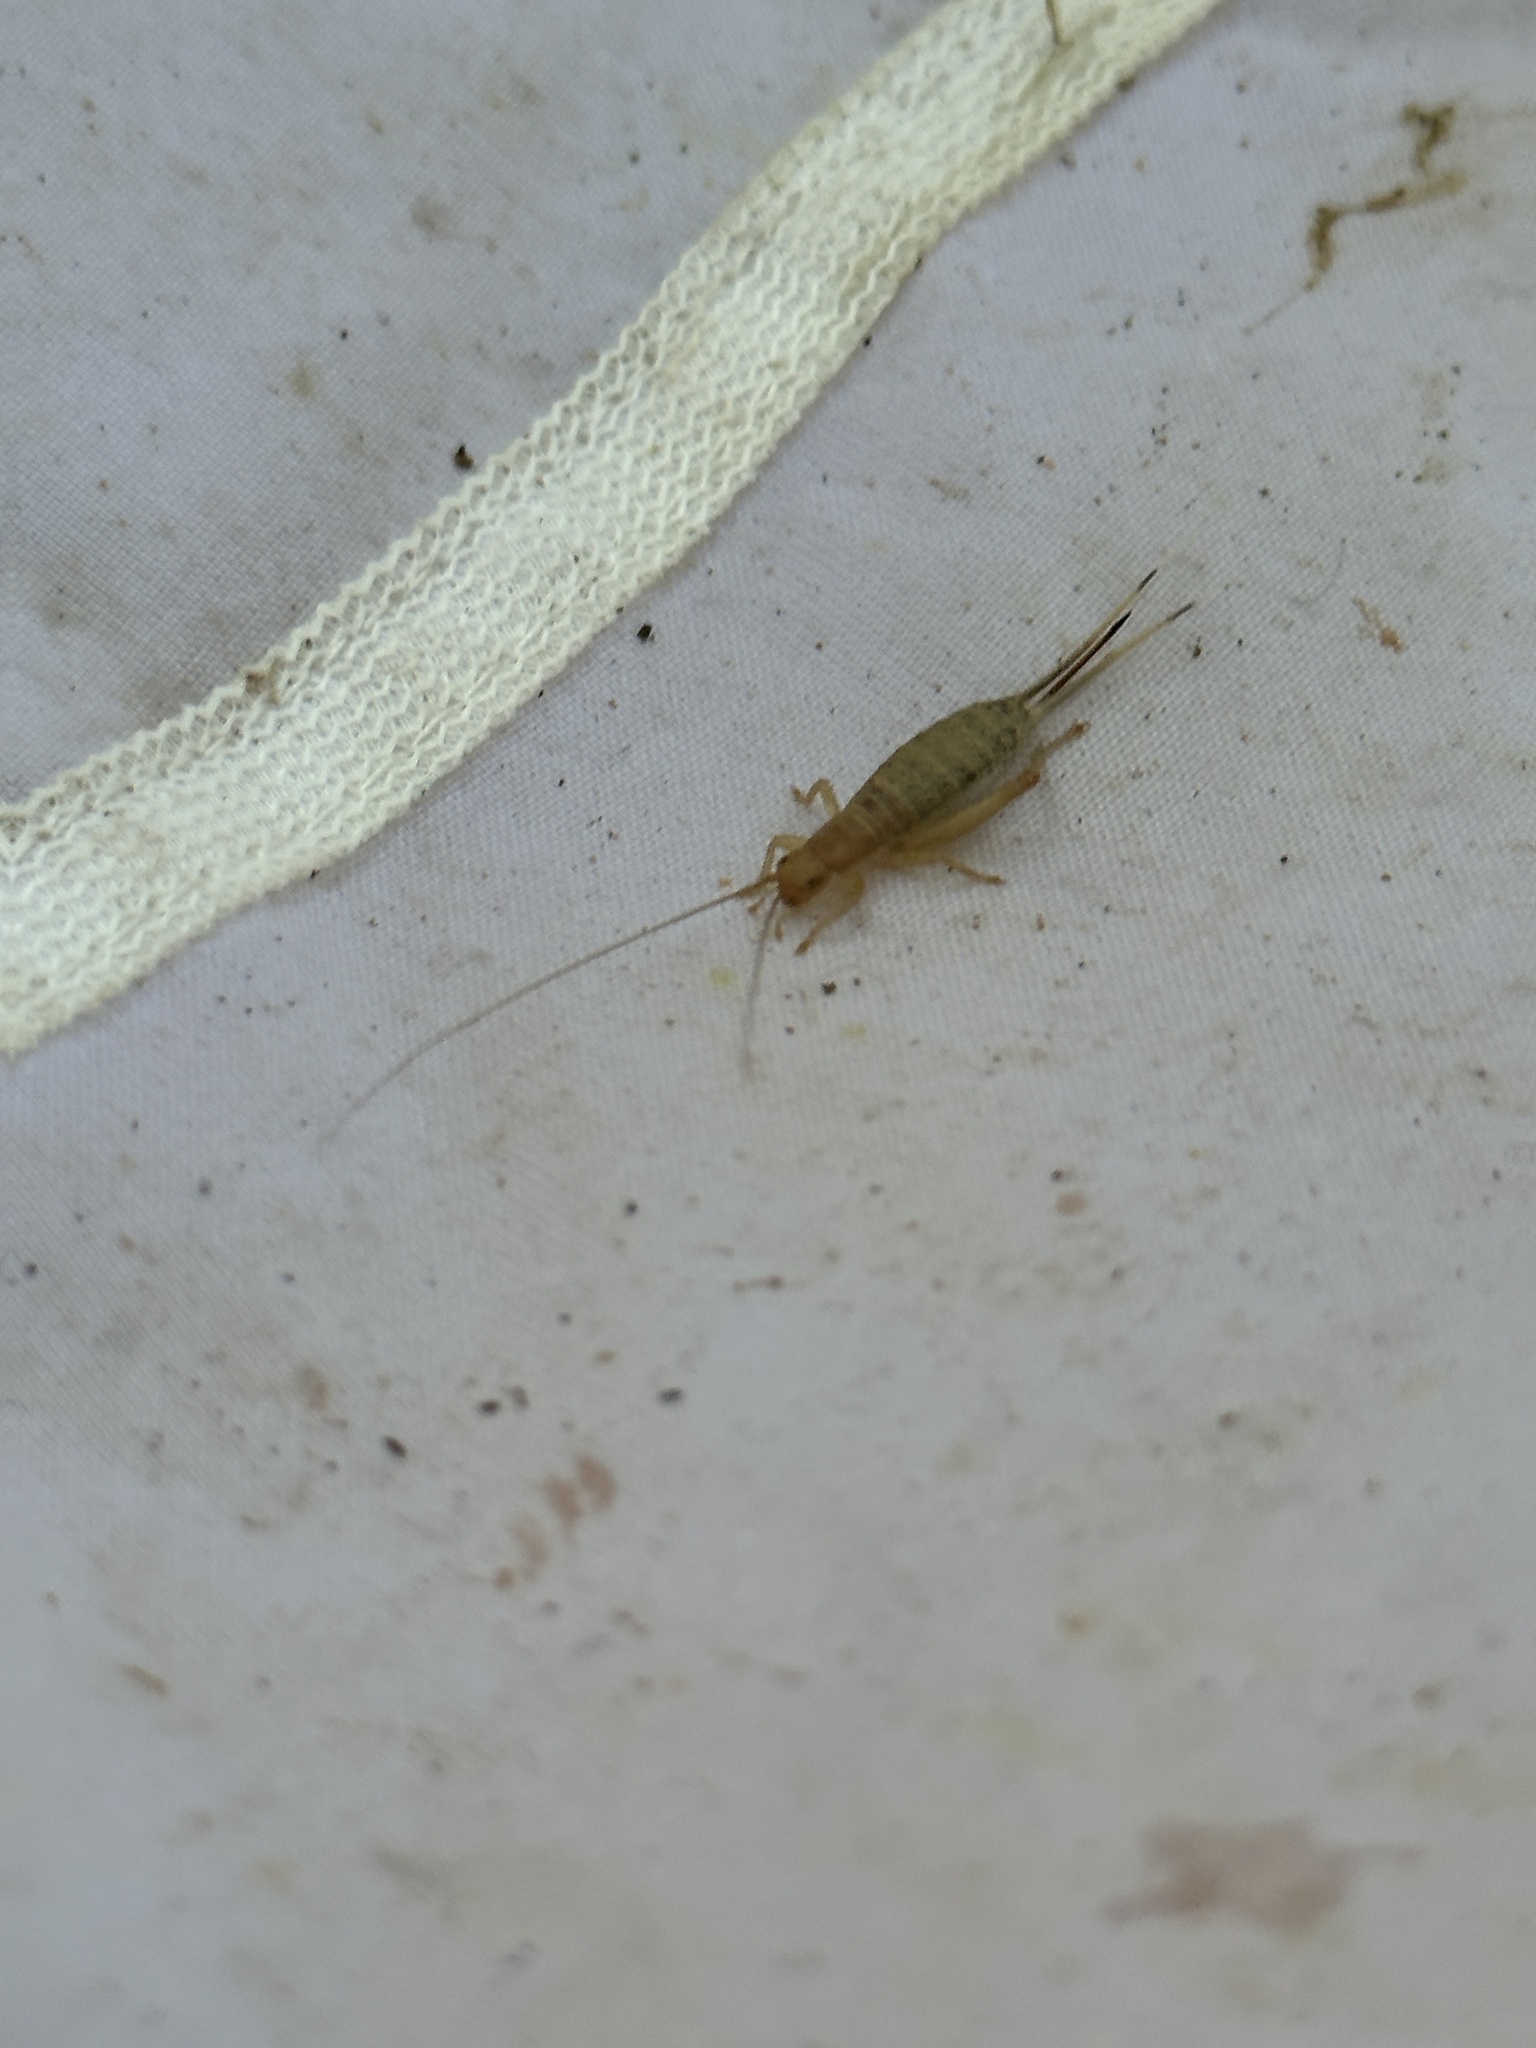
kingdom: Animalia
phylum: Arthropoda
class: Insecta
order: Orthoptera
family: Mogoplistidae
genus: Ornebius
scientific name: Ornebius bimaculatus
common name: Cricket
